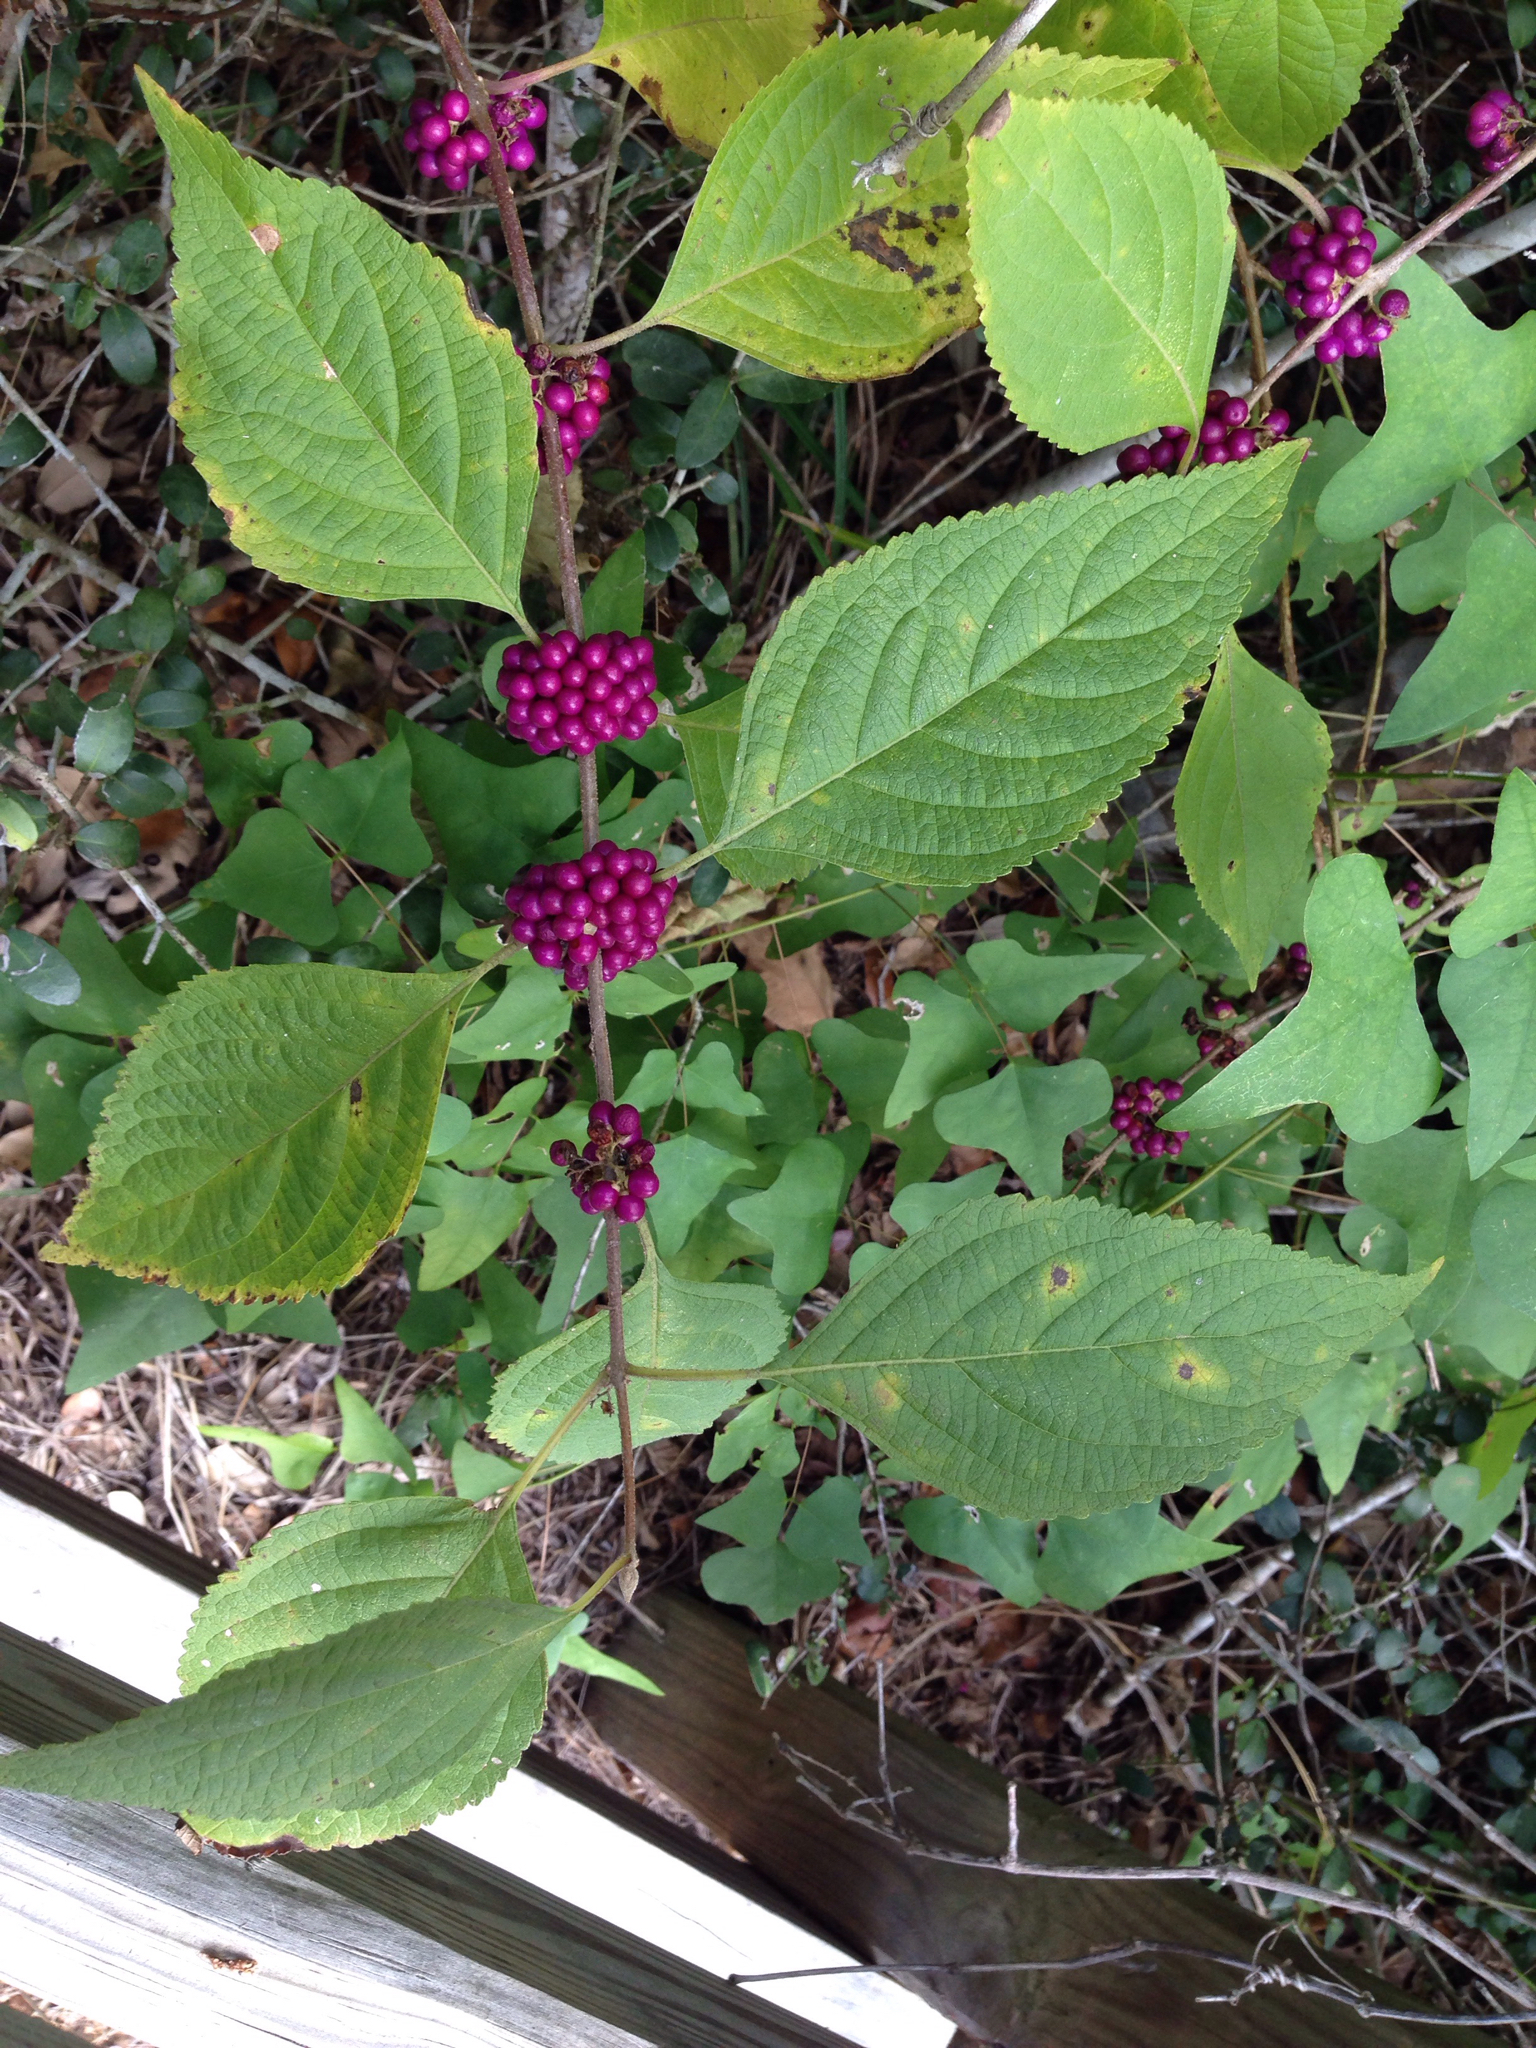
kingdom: Plantae
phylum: Tracheophyta
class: Magnoliopsida
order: Lamiales
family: Lamiaceae
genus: Callicarpa
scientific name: Callicarpa americana
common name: American beautyberry
